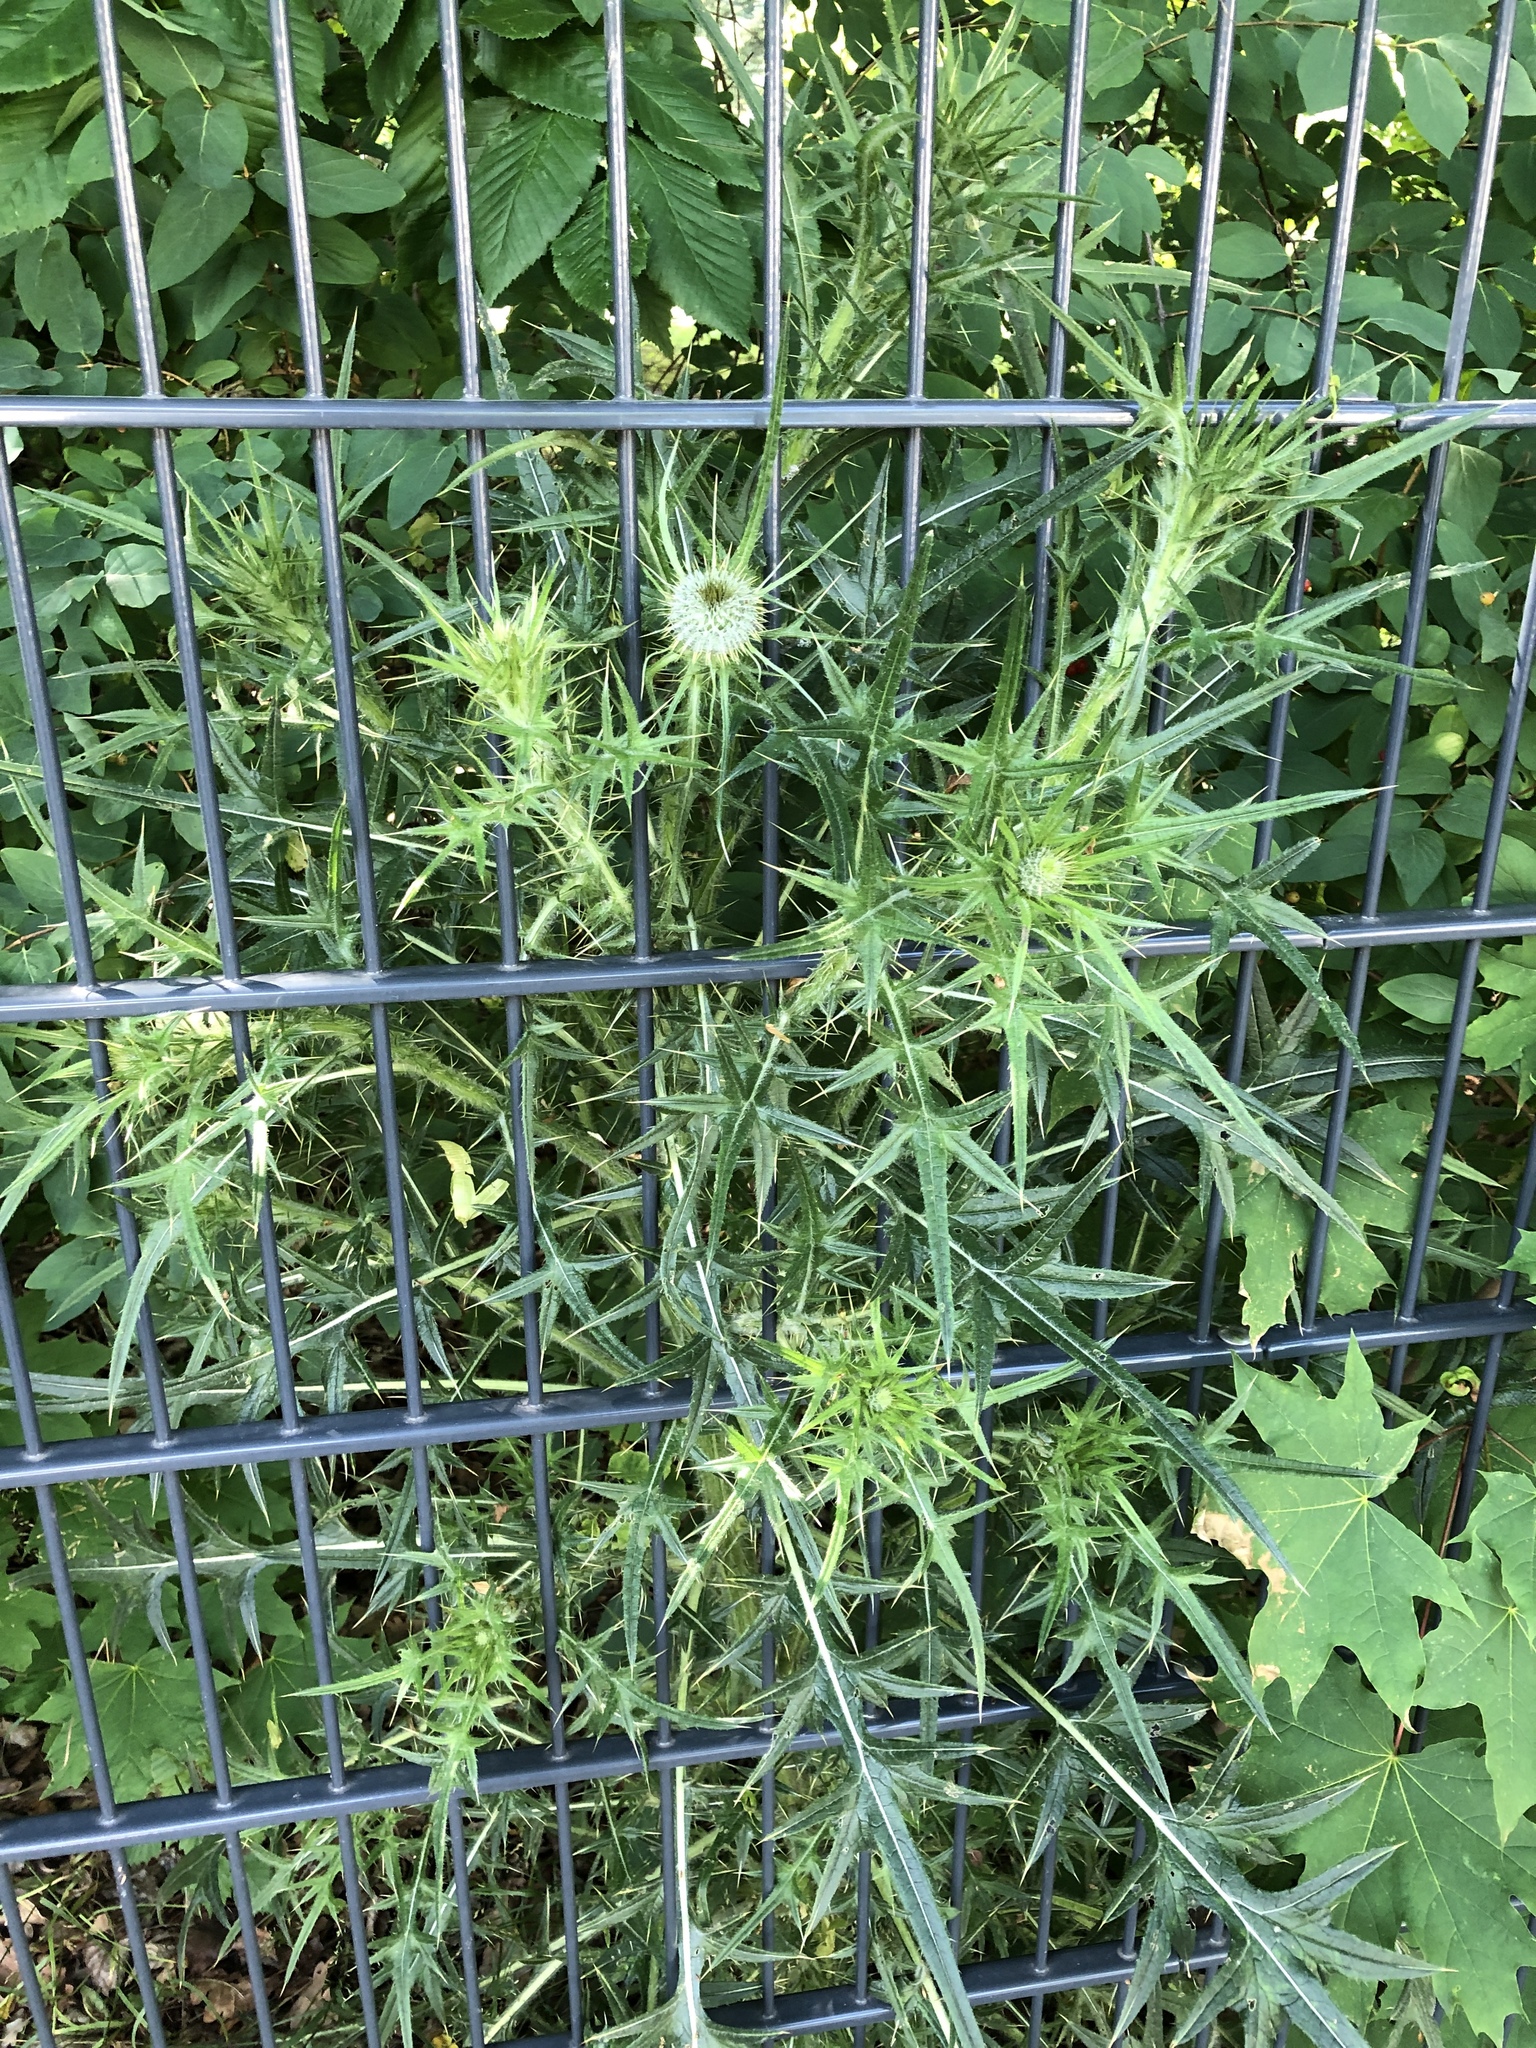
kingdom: Plantae
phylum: Tracheophyta
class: Magnoliopsida
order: Asterales
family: Asteraceae
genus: Cirsium
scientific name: Cirsium vulgare
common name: Bull thistle
